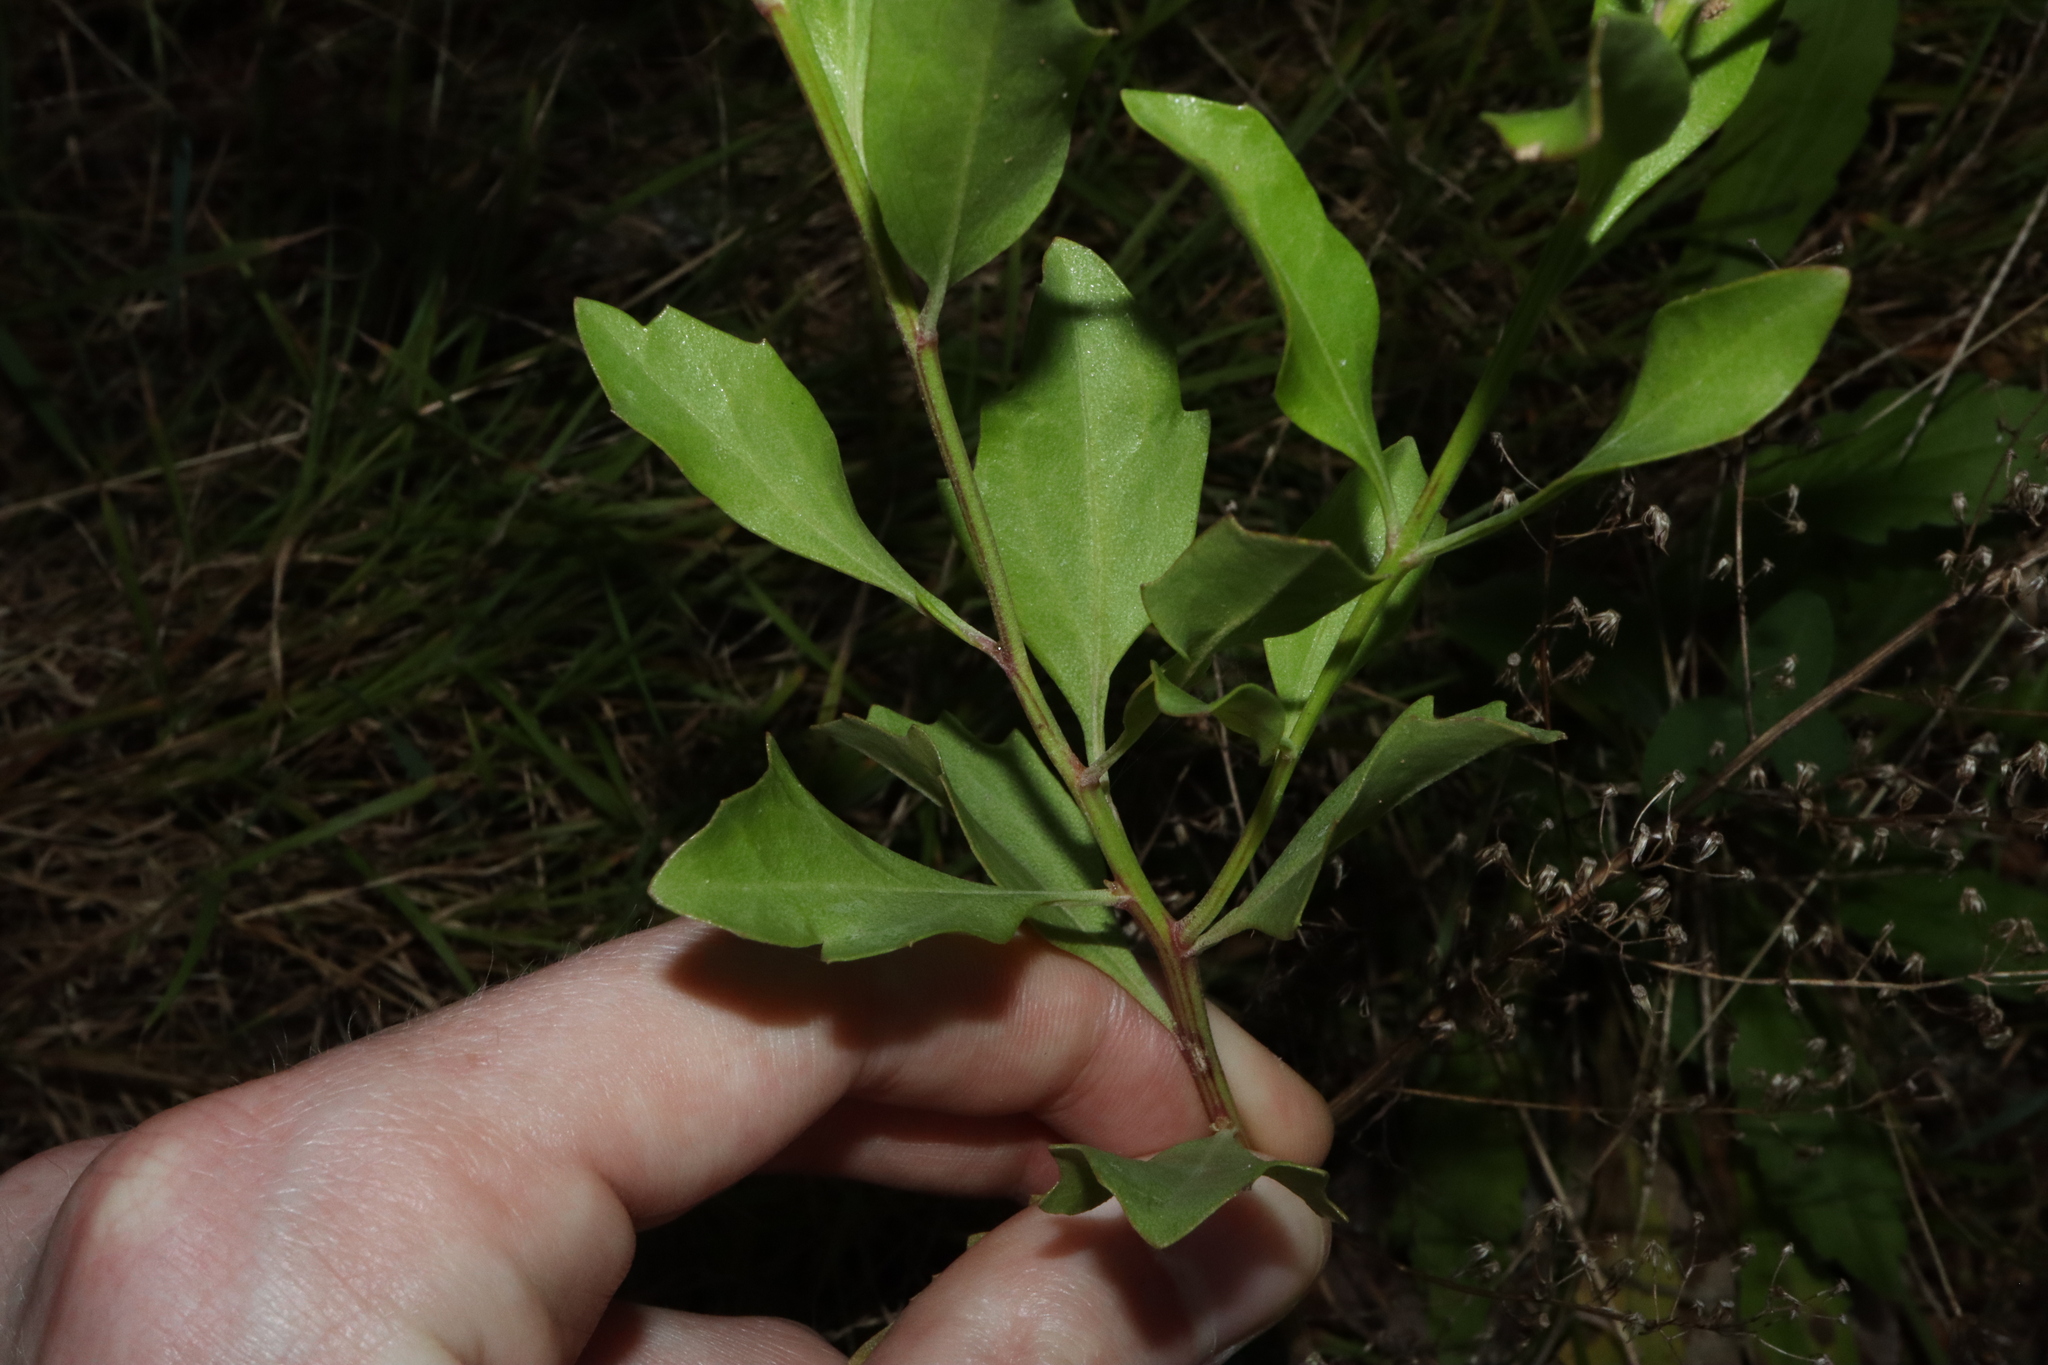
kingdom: Plantae
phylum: Tracheophyta
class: Magnoliopsida
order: Asterales
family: Asteraceae
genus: Baccharis
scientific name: Baccharis halimifolia
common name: Eastern baccharis
